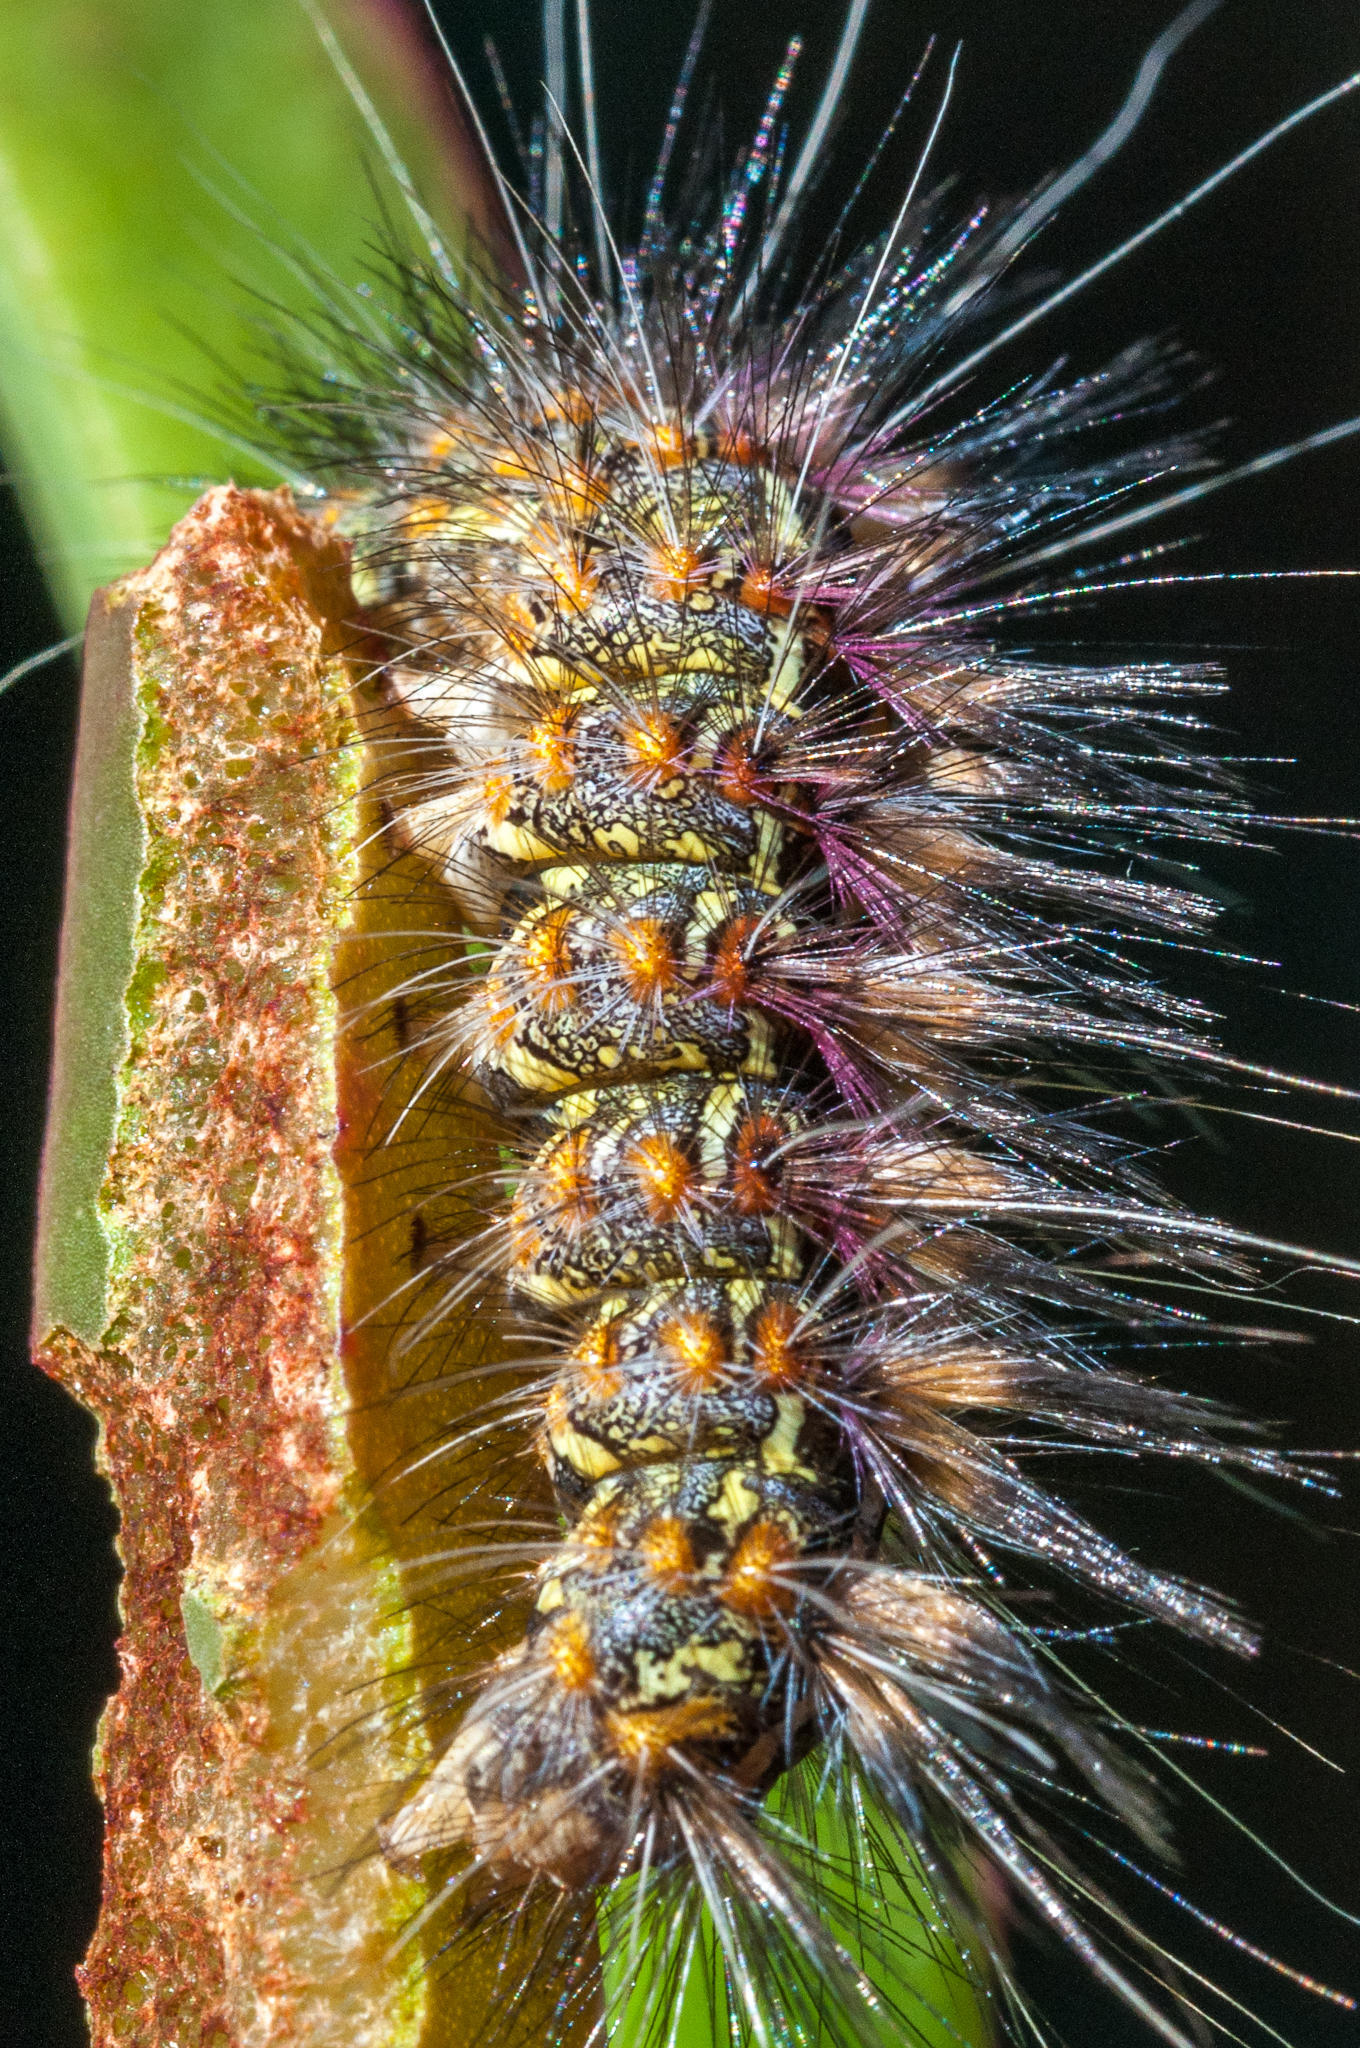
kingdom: Animalia
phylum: Arthropoda
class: Insecta
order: Lepidoptera
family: Erebidae
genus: Paralacydes
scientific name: Paralacydes vocula
